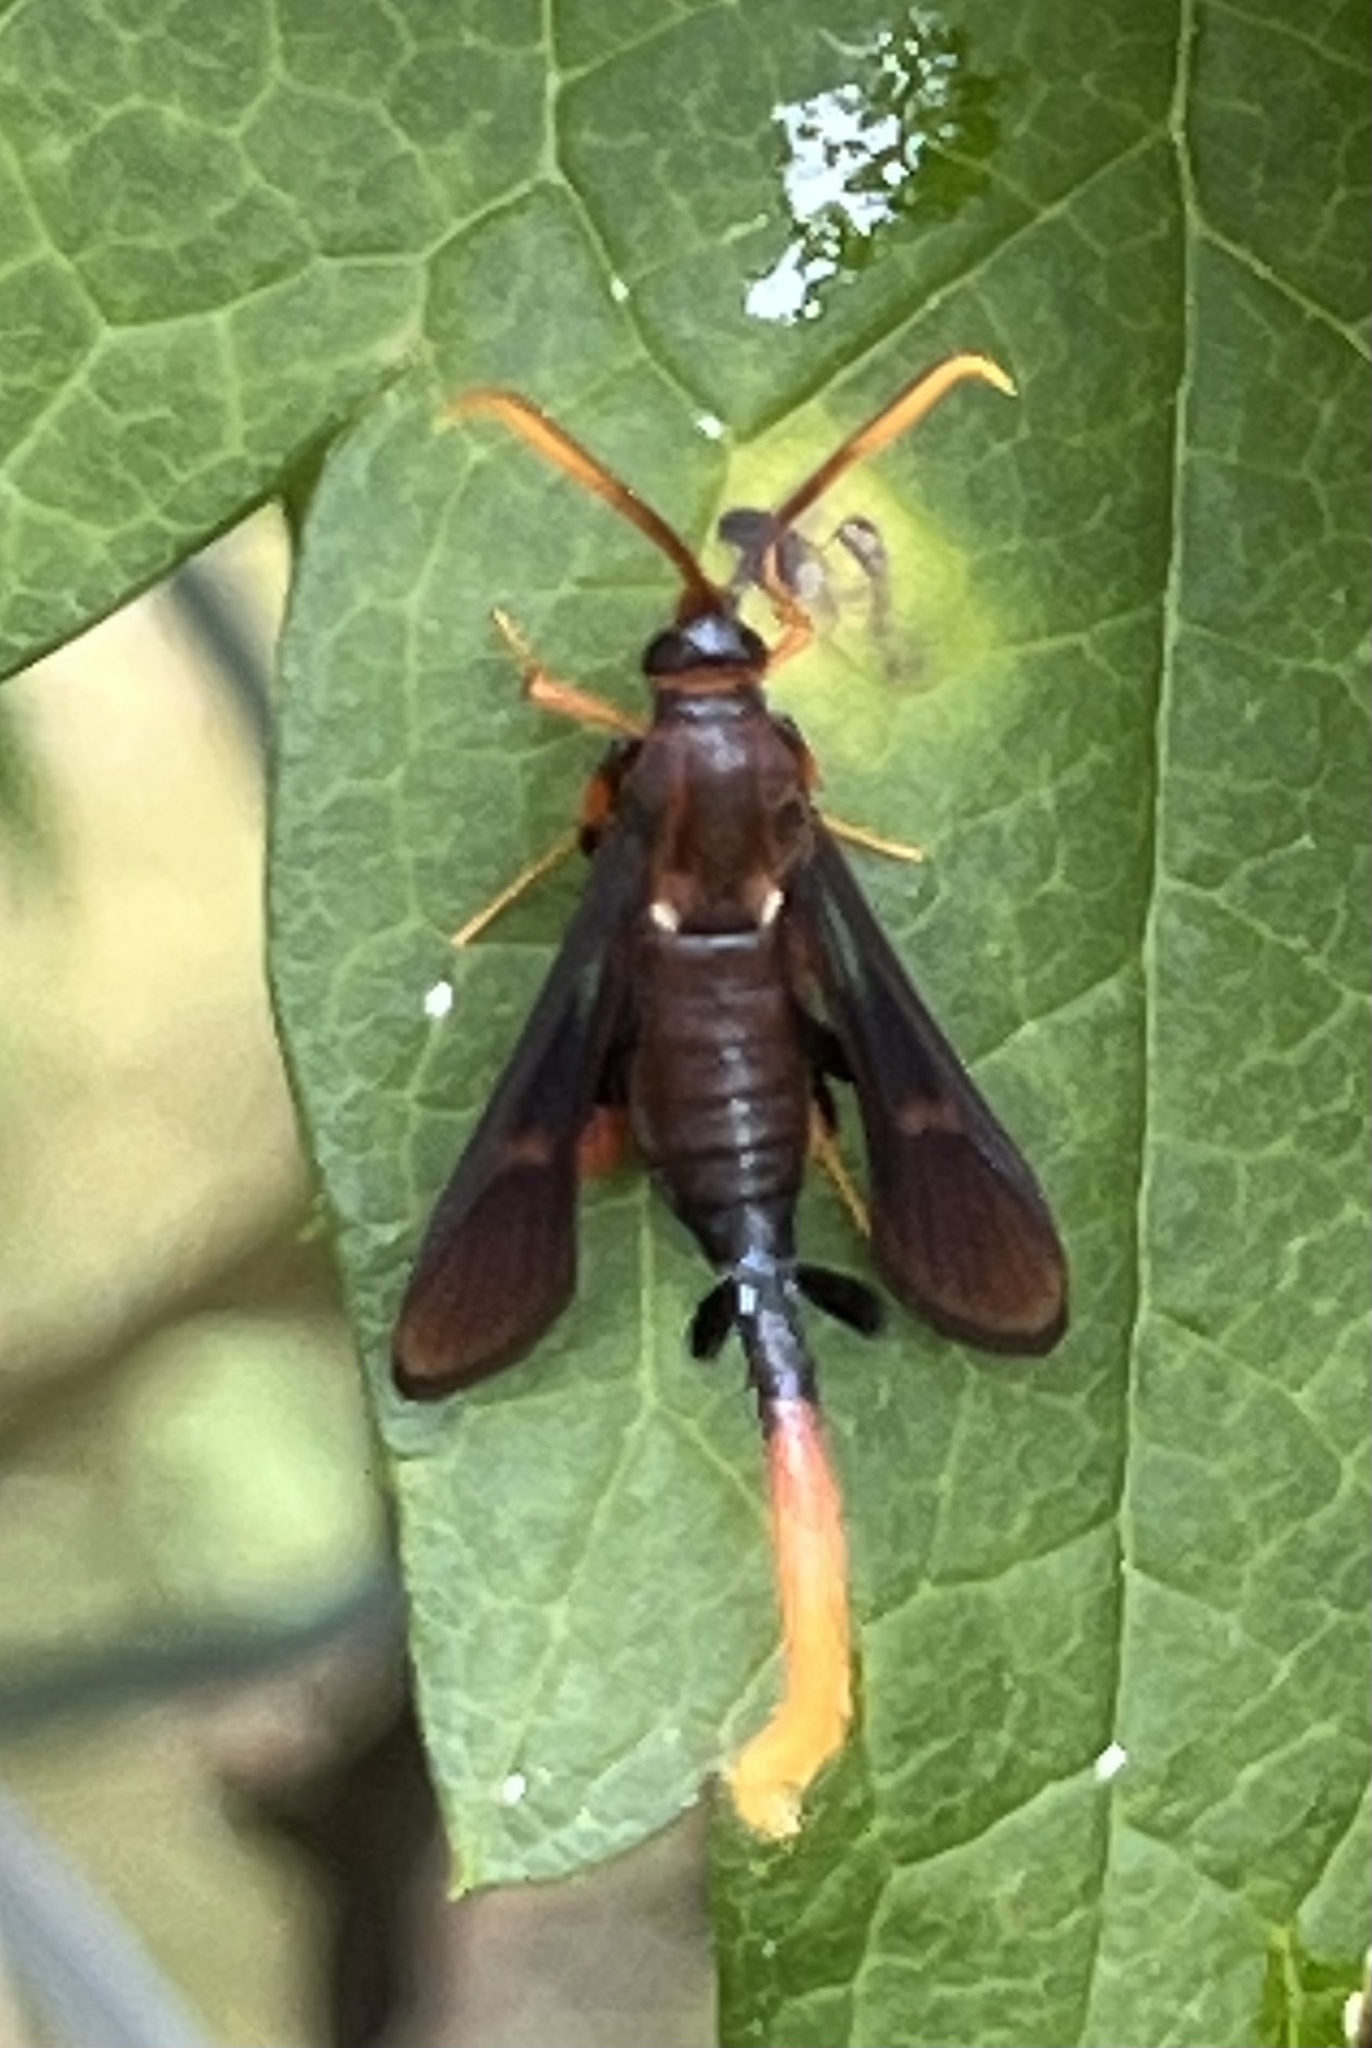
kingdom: Animalia
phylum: Arthropoda
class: Insecta
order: Lepidoptera
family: Sesiidae
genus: Alcathoe
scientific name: Alcathoe caudata
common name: Clematis clearwing moth
